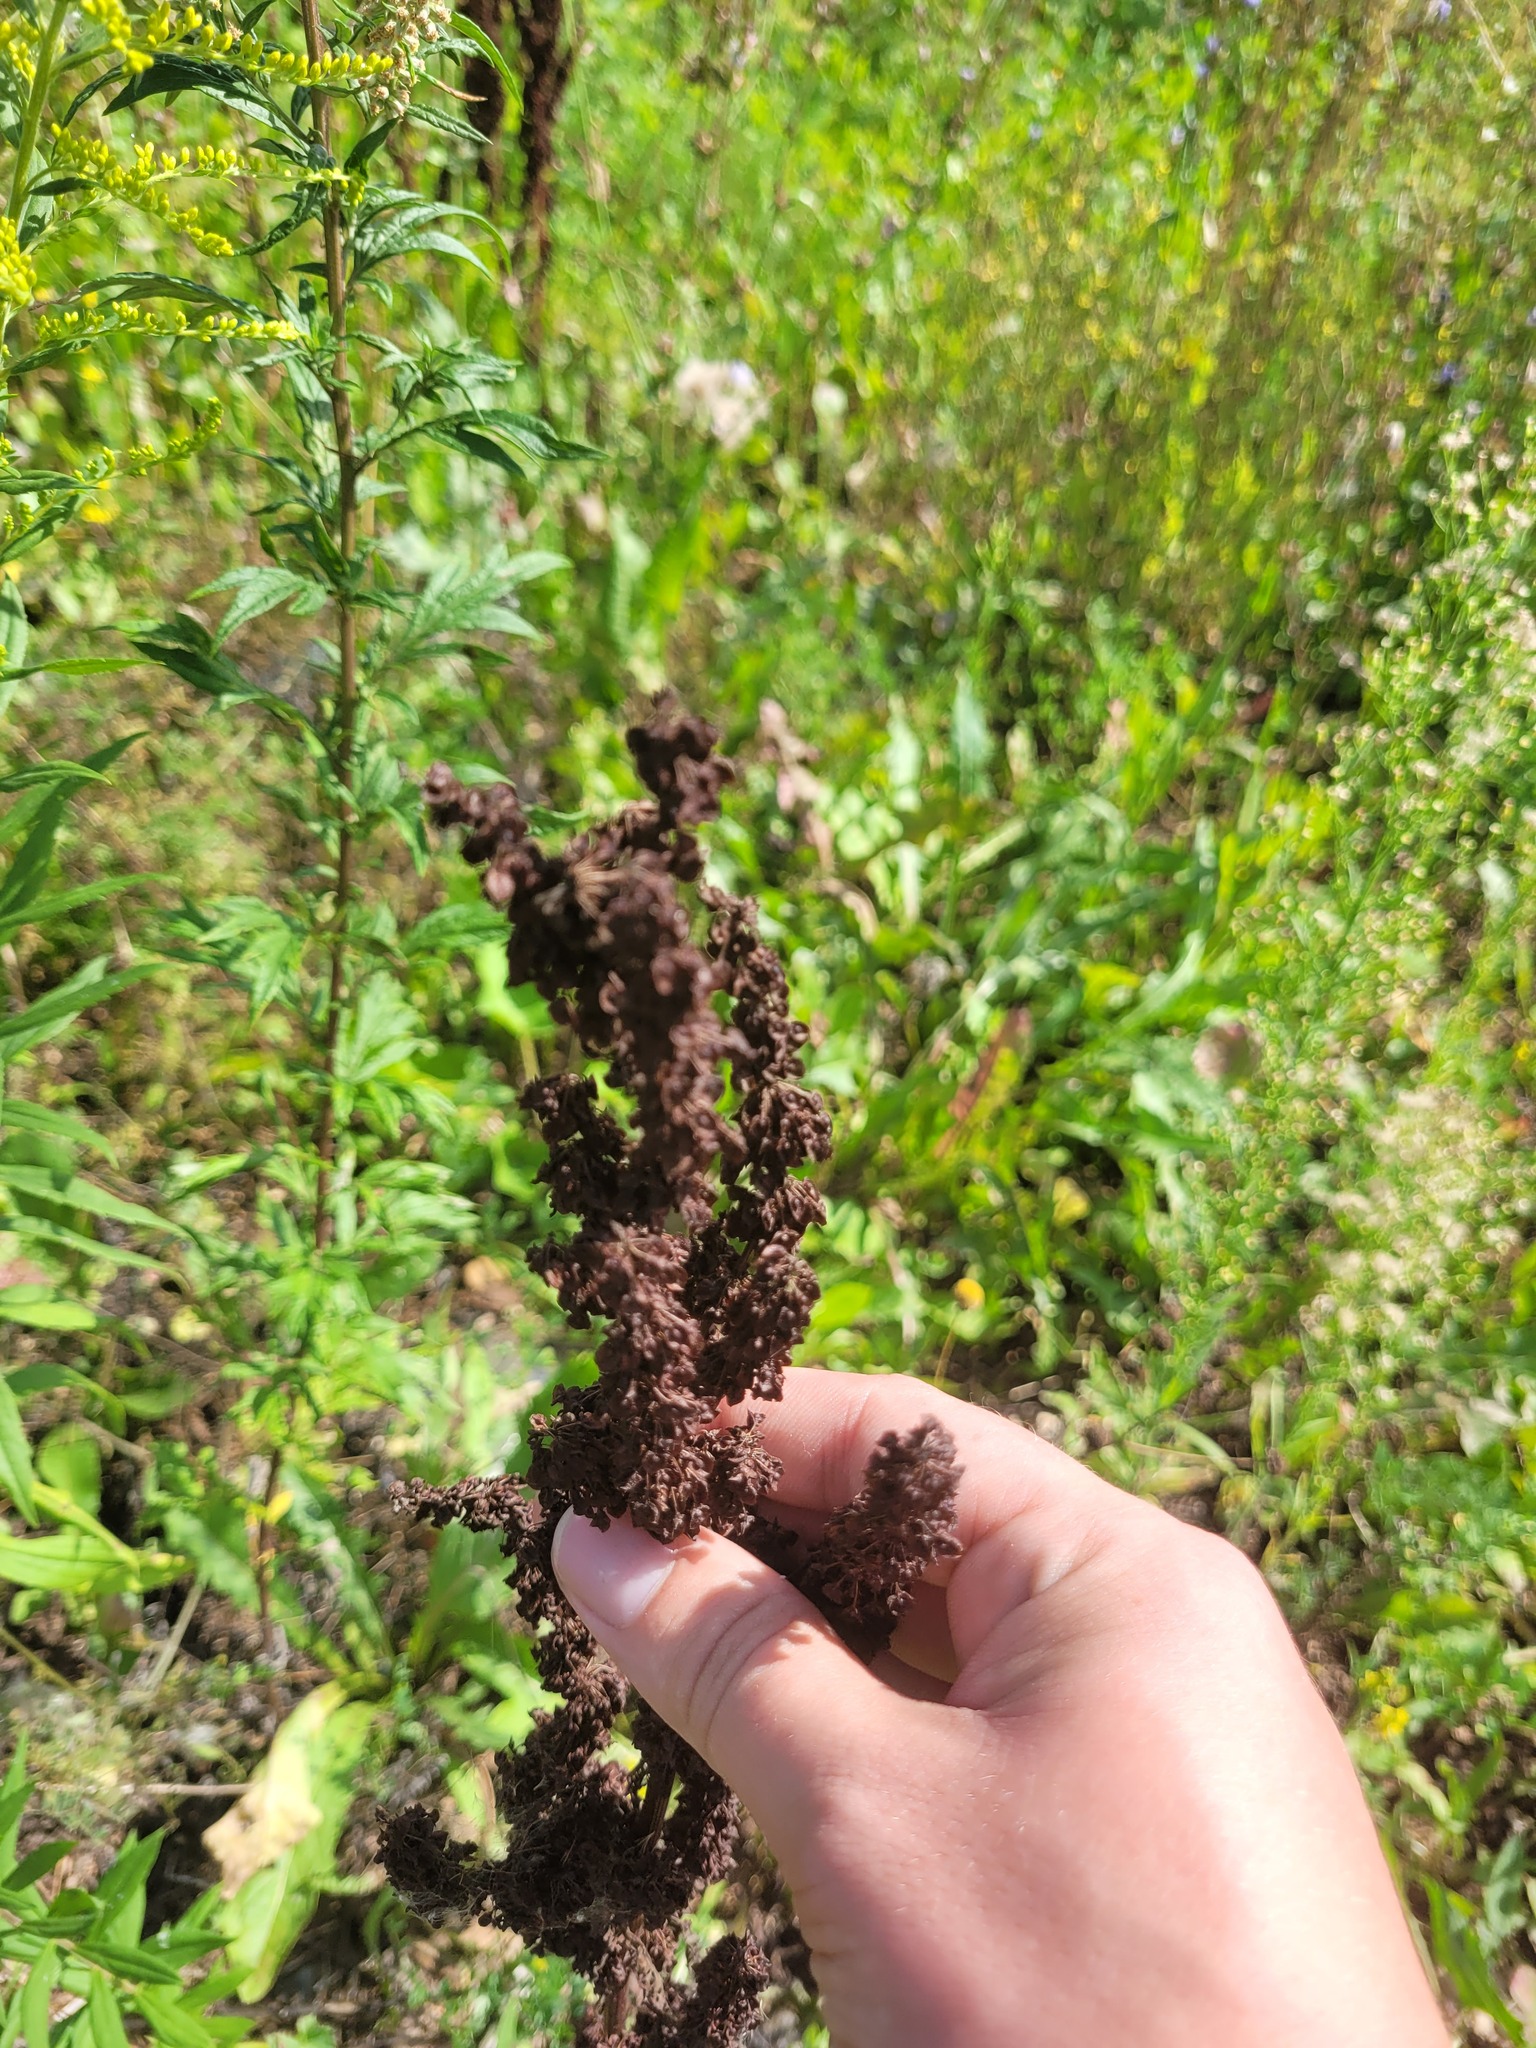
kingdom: Plantae
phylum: Tracheophyta
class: Magnoliopsida
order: Caryophyllales
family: Polygonaceae
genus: Rumex
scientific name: Rumex crispus
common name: Curled dock
